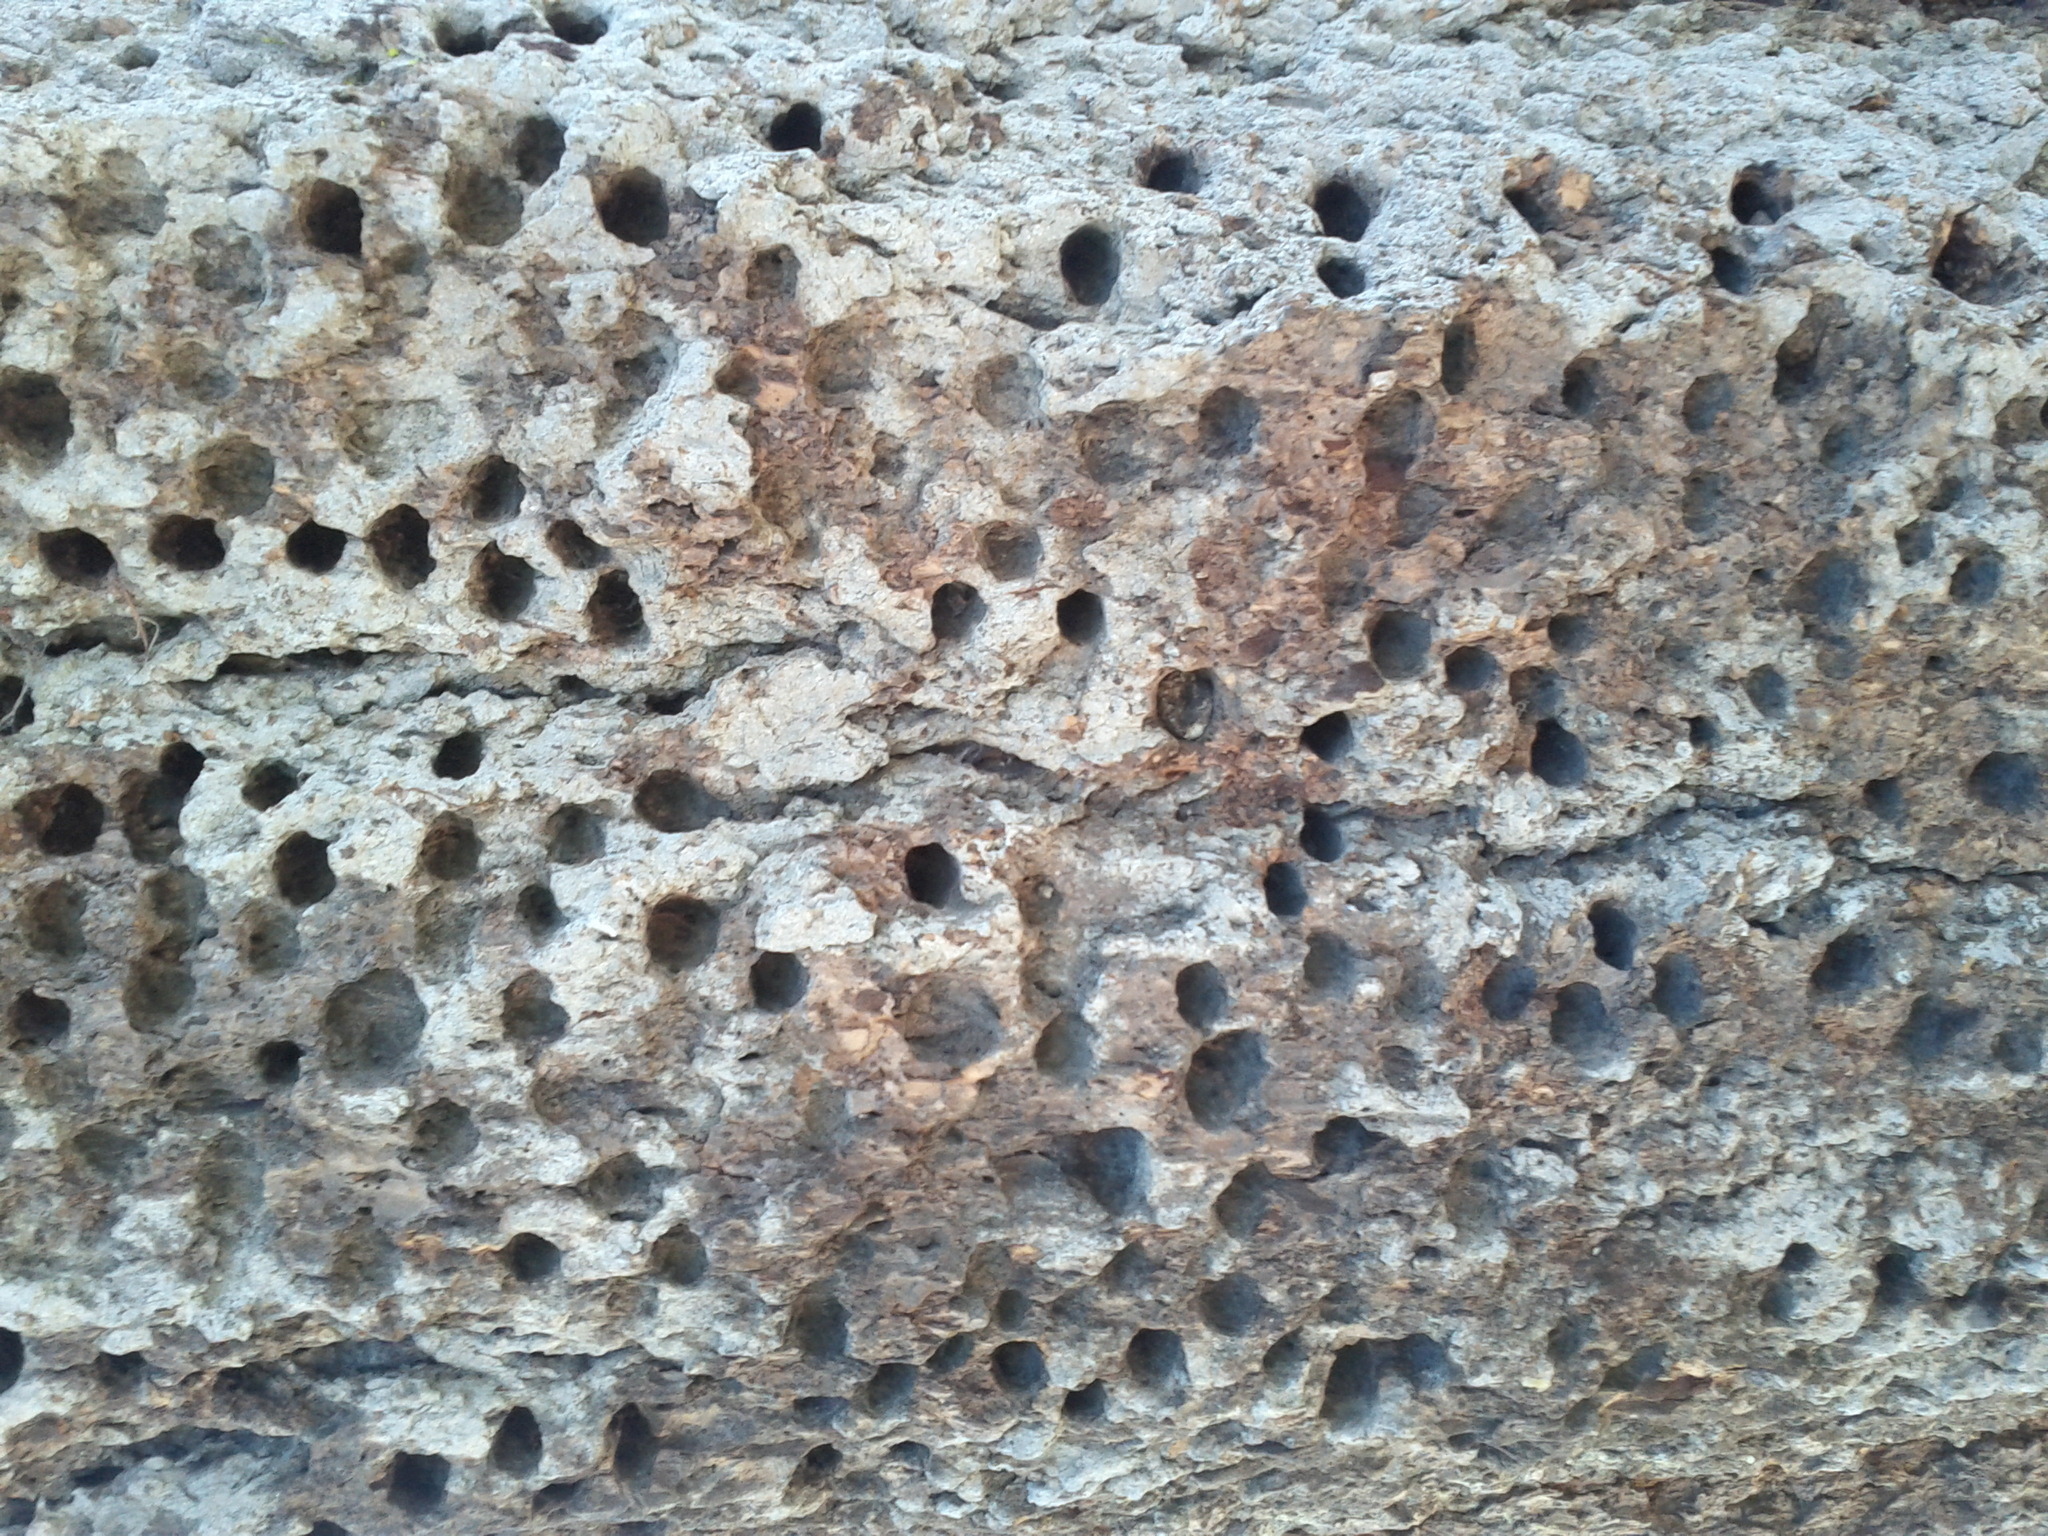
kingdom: Animalia
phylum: Chordata
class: Aves
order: Piciformes
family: Picidae
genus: Melanerpes
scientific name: Melanerpes formicivorus
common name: Acorn woodpecker
